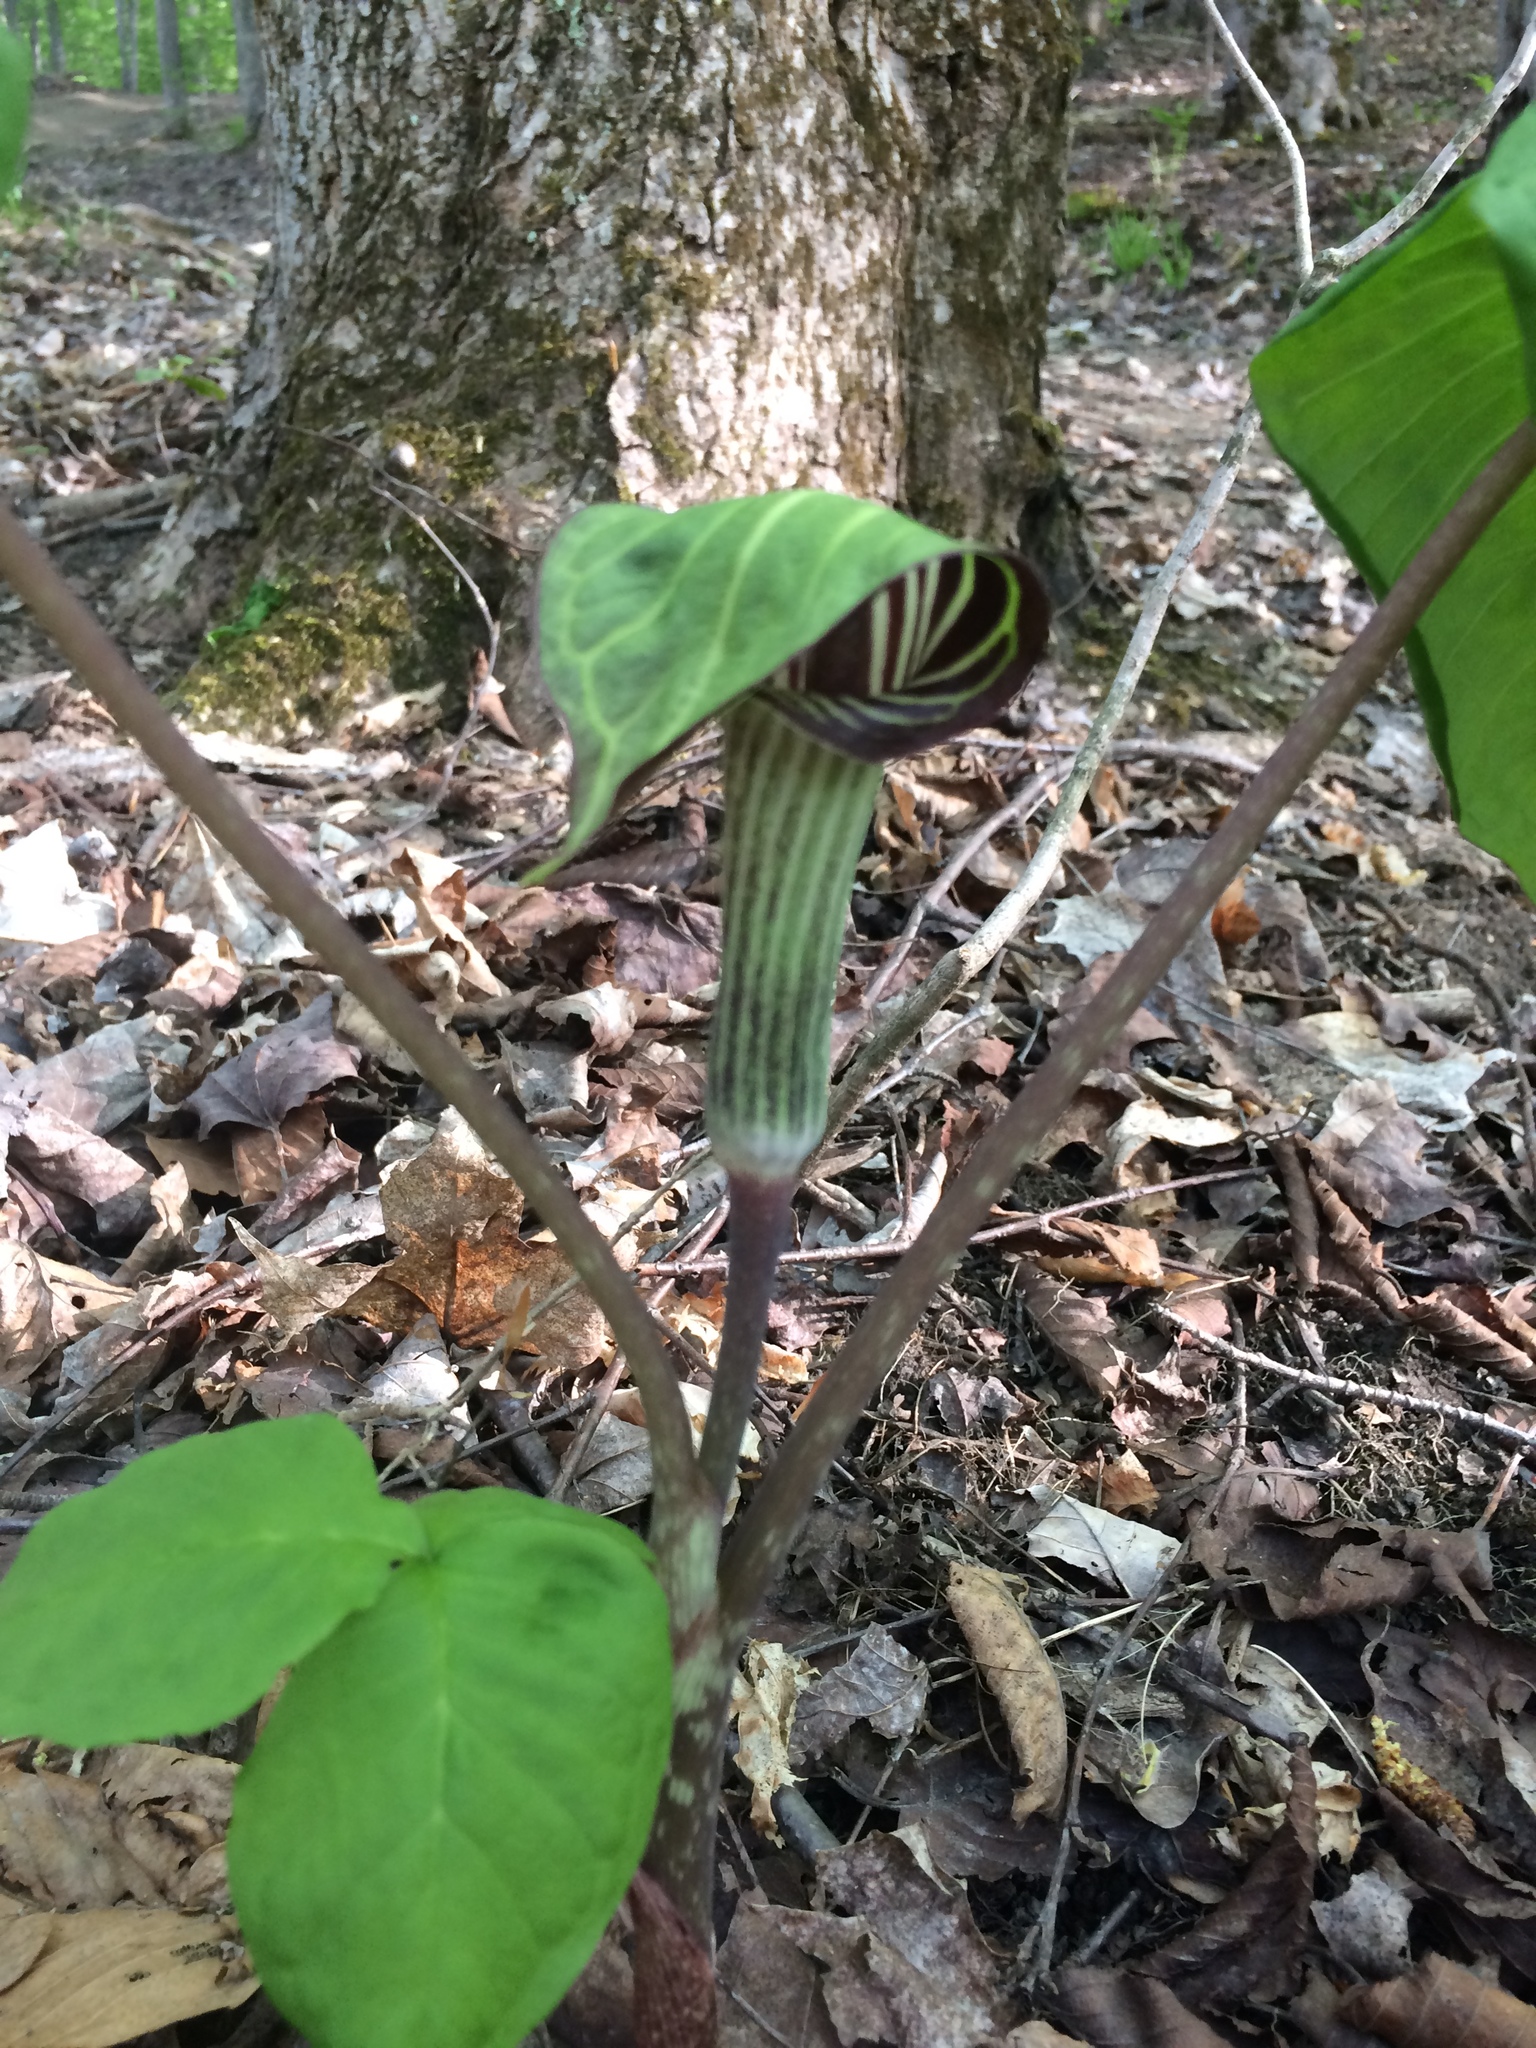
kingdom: Plantae
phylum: Tracheophyta
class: Liliopsida
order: Alismatales
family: Araceae
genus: Arisaema
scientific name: Arisaema triphyllum
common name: Jack-in-the-pulpit
